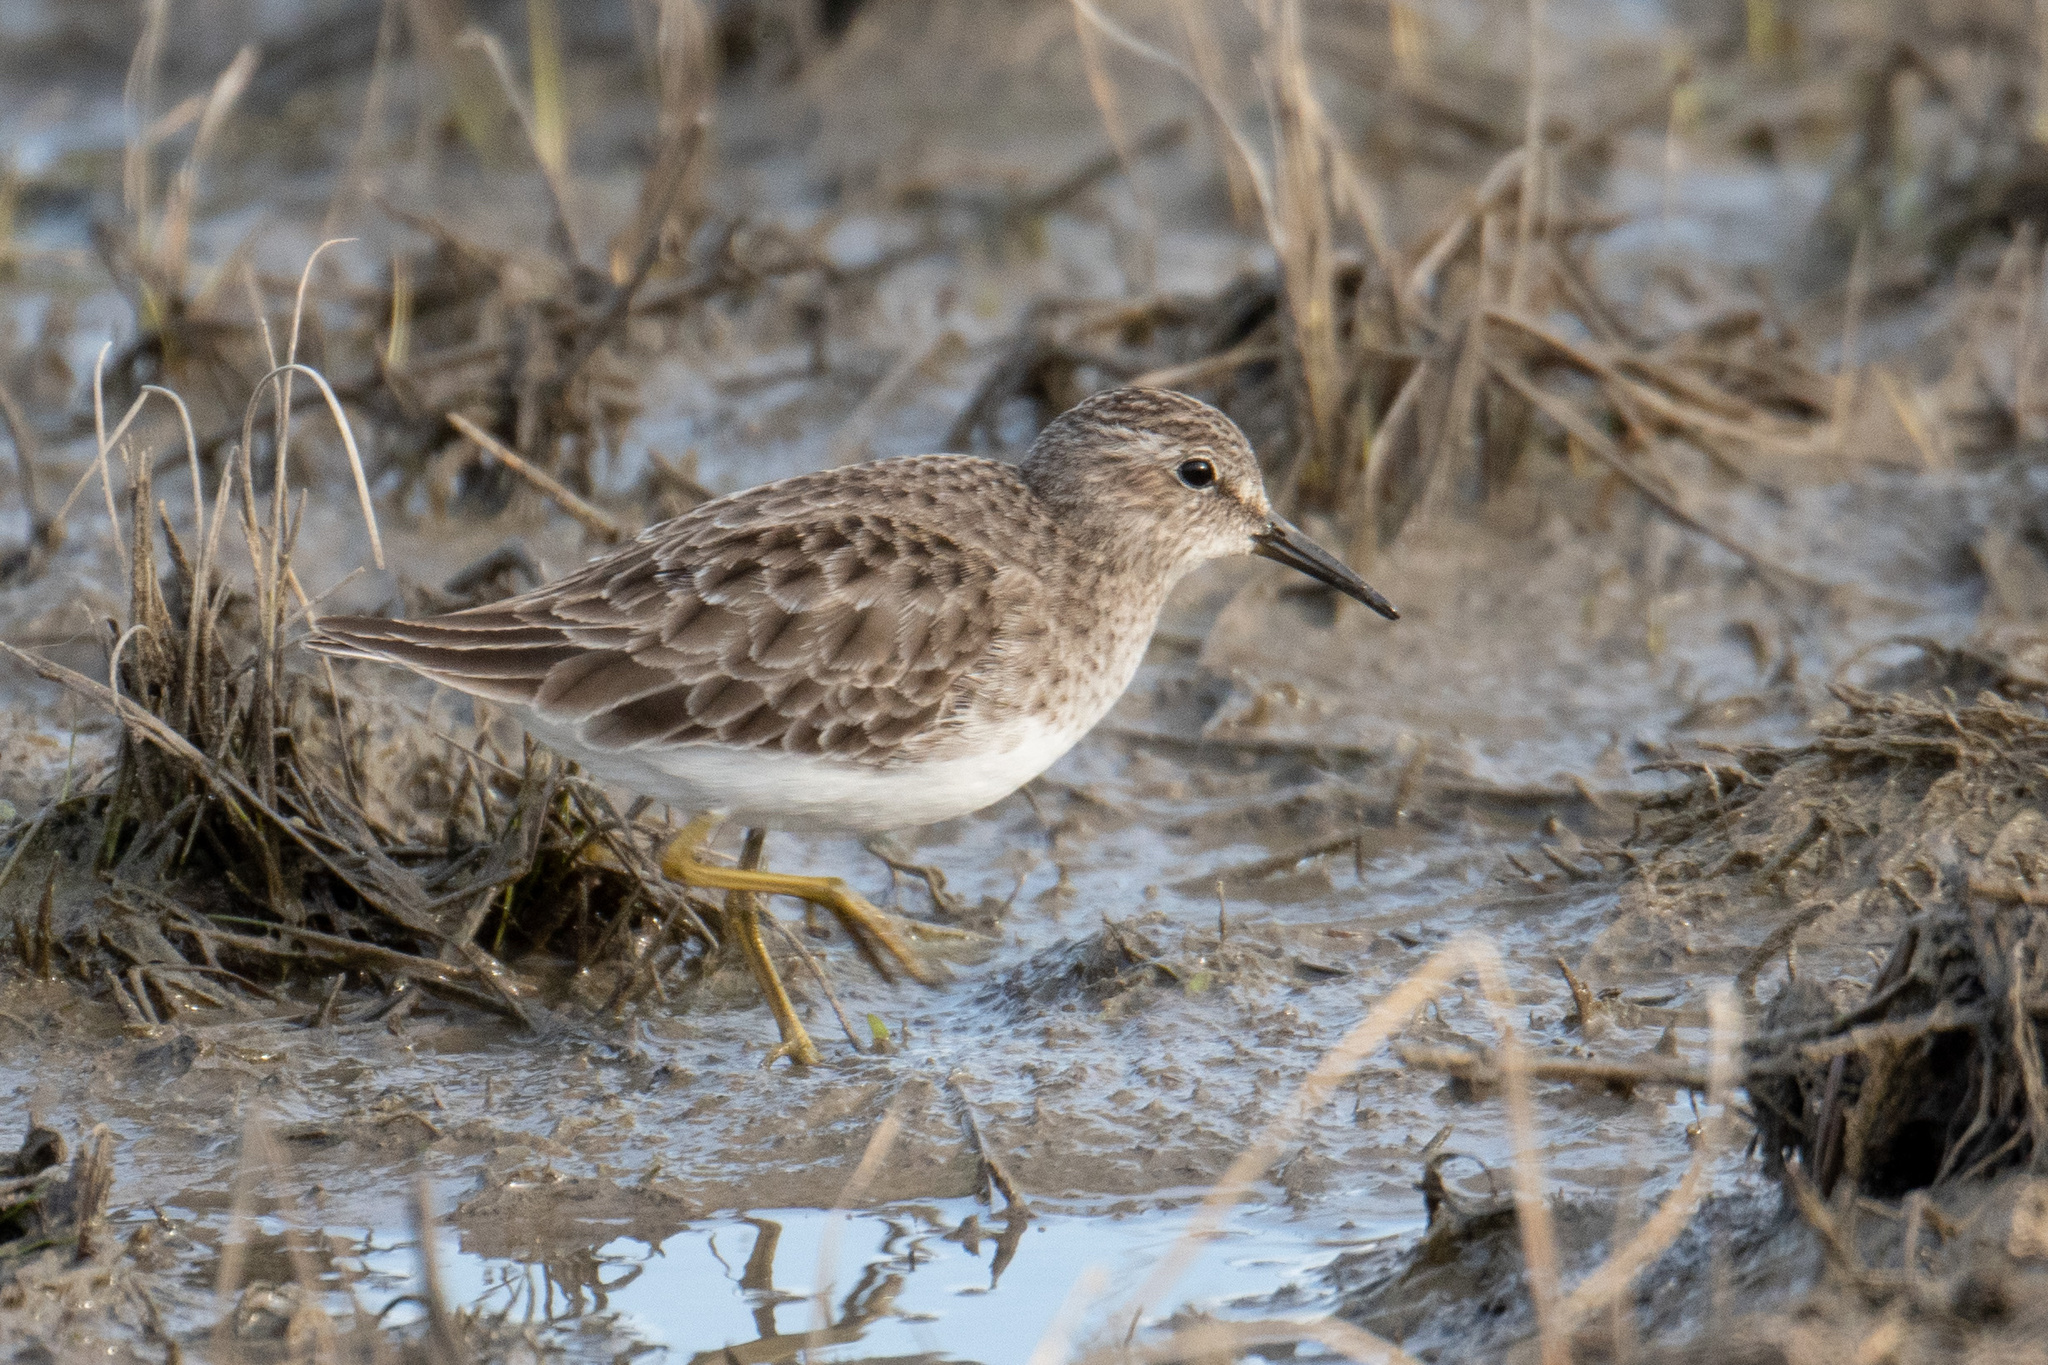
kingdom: Animalia
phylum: Chordata
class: Aves
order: Charadriiformes
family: Scolopacidae
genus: Calidris
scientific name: Calidris minutilla
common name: Least sandpiper
